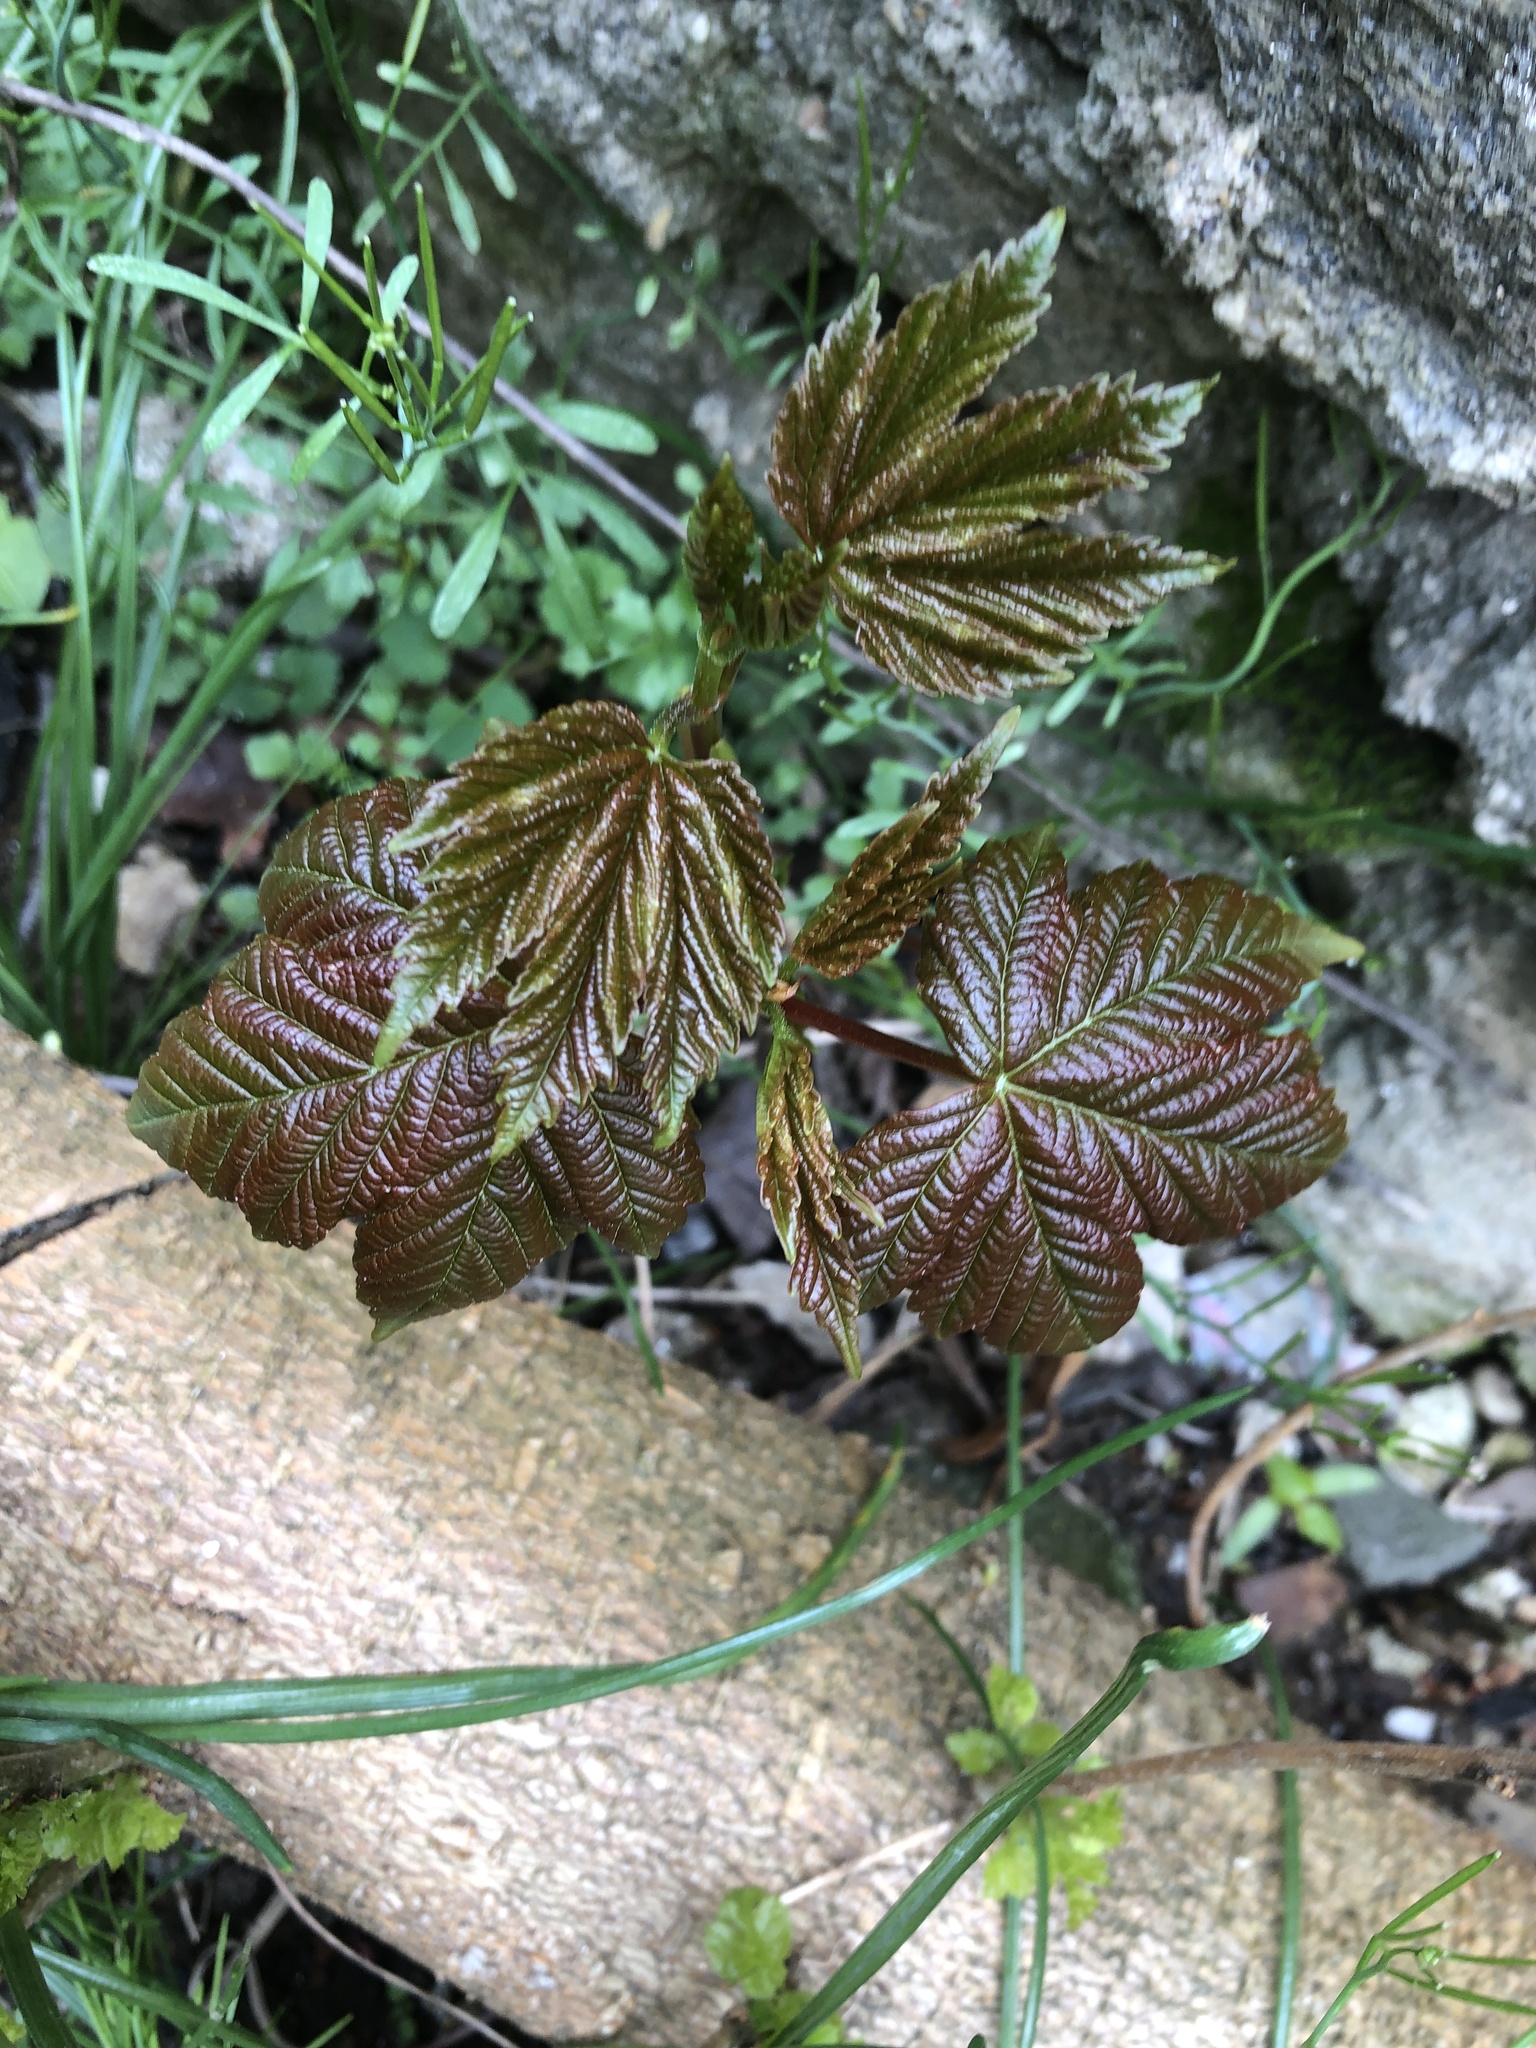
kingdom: Plantae
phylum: Tracheophyta
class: Magnoliopsida
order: Sapindales
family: Sapindaceae
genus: Acer
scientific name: Acer pseudoplatanus
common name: Sycamore
